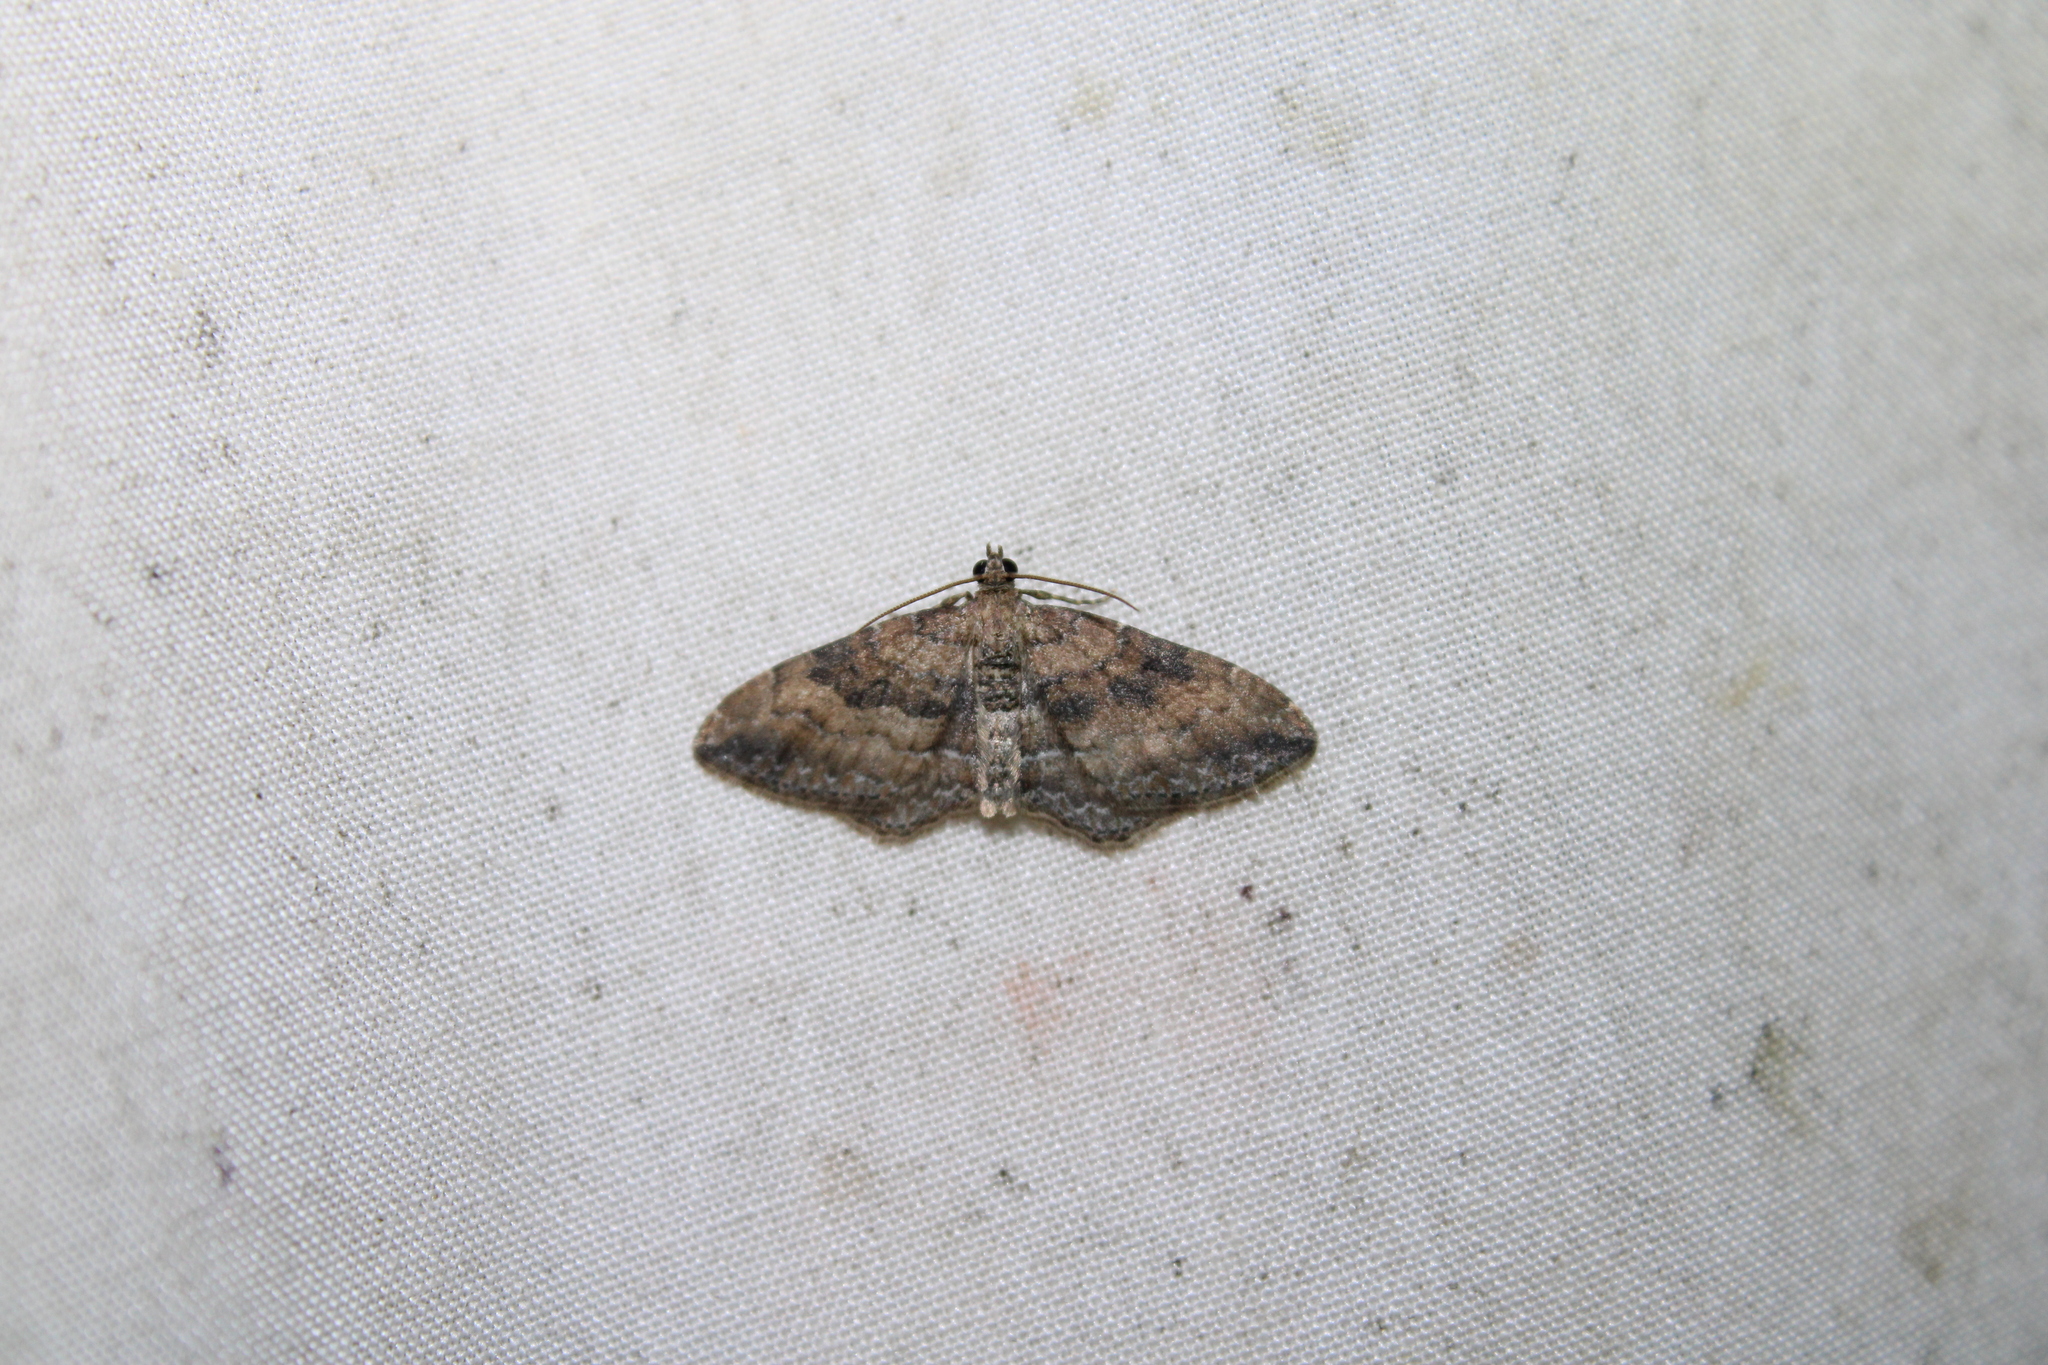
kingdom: Animalia
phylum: Arthropoda
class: Insecta
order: Lepidoptera
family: Geometridae
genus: Orthonama
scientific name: Orthonama obstipata
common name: The gem
